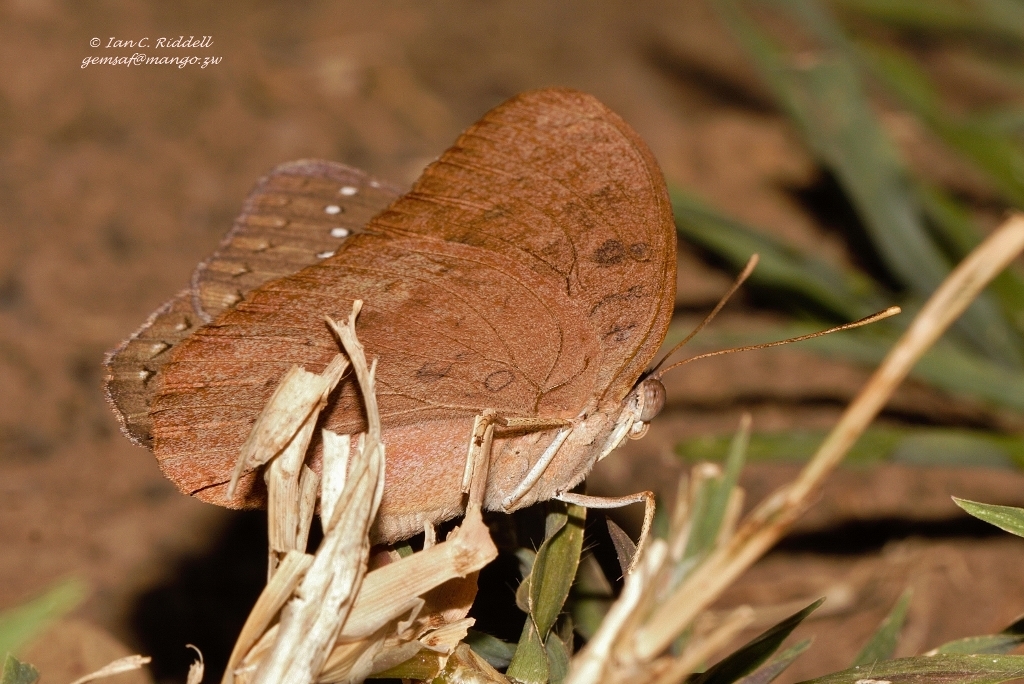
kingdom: Animalia
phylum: Arthropoda
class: Insecta
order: Lepidoptera
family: Nymphalidae
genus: Hamanumida
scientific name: Hamanumida daedalus
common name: Guinea-fowl butterfly
